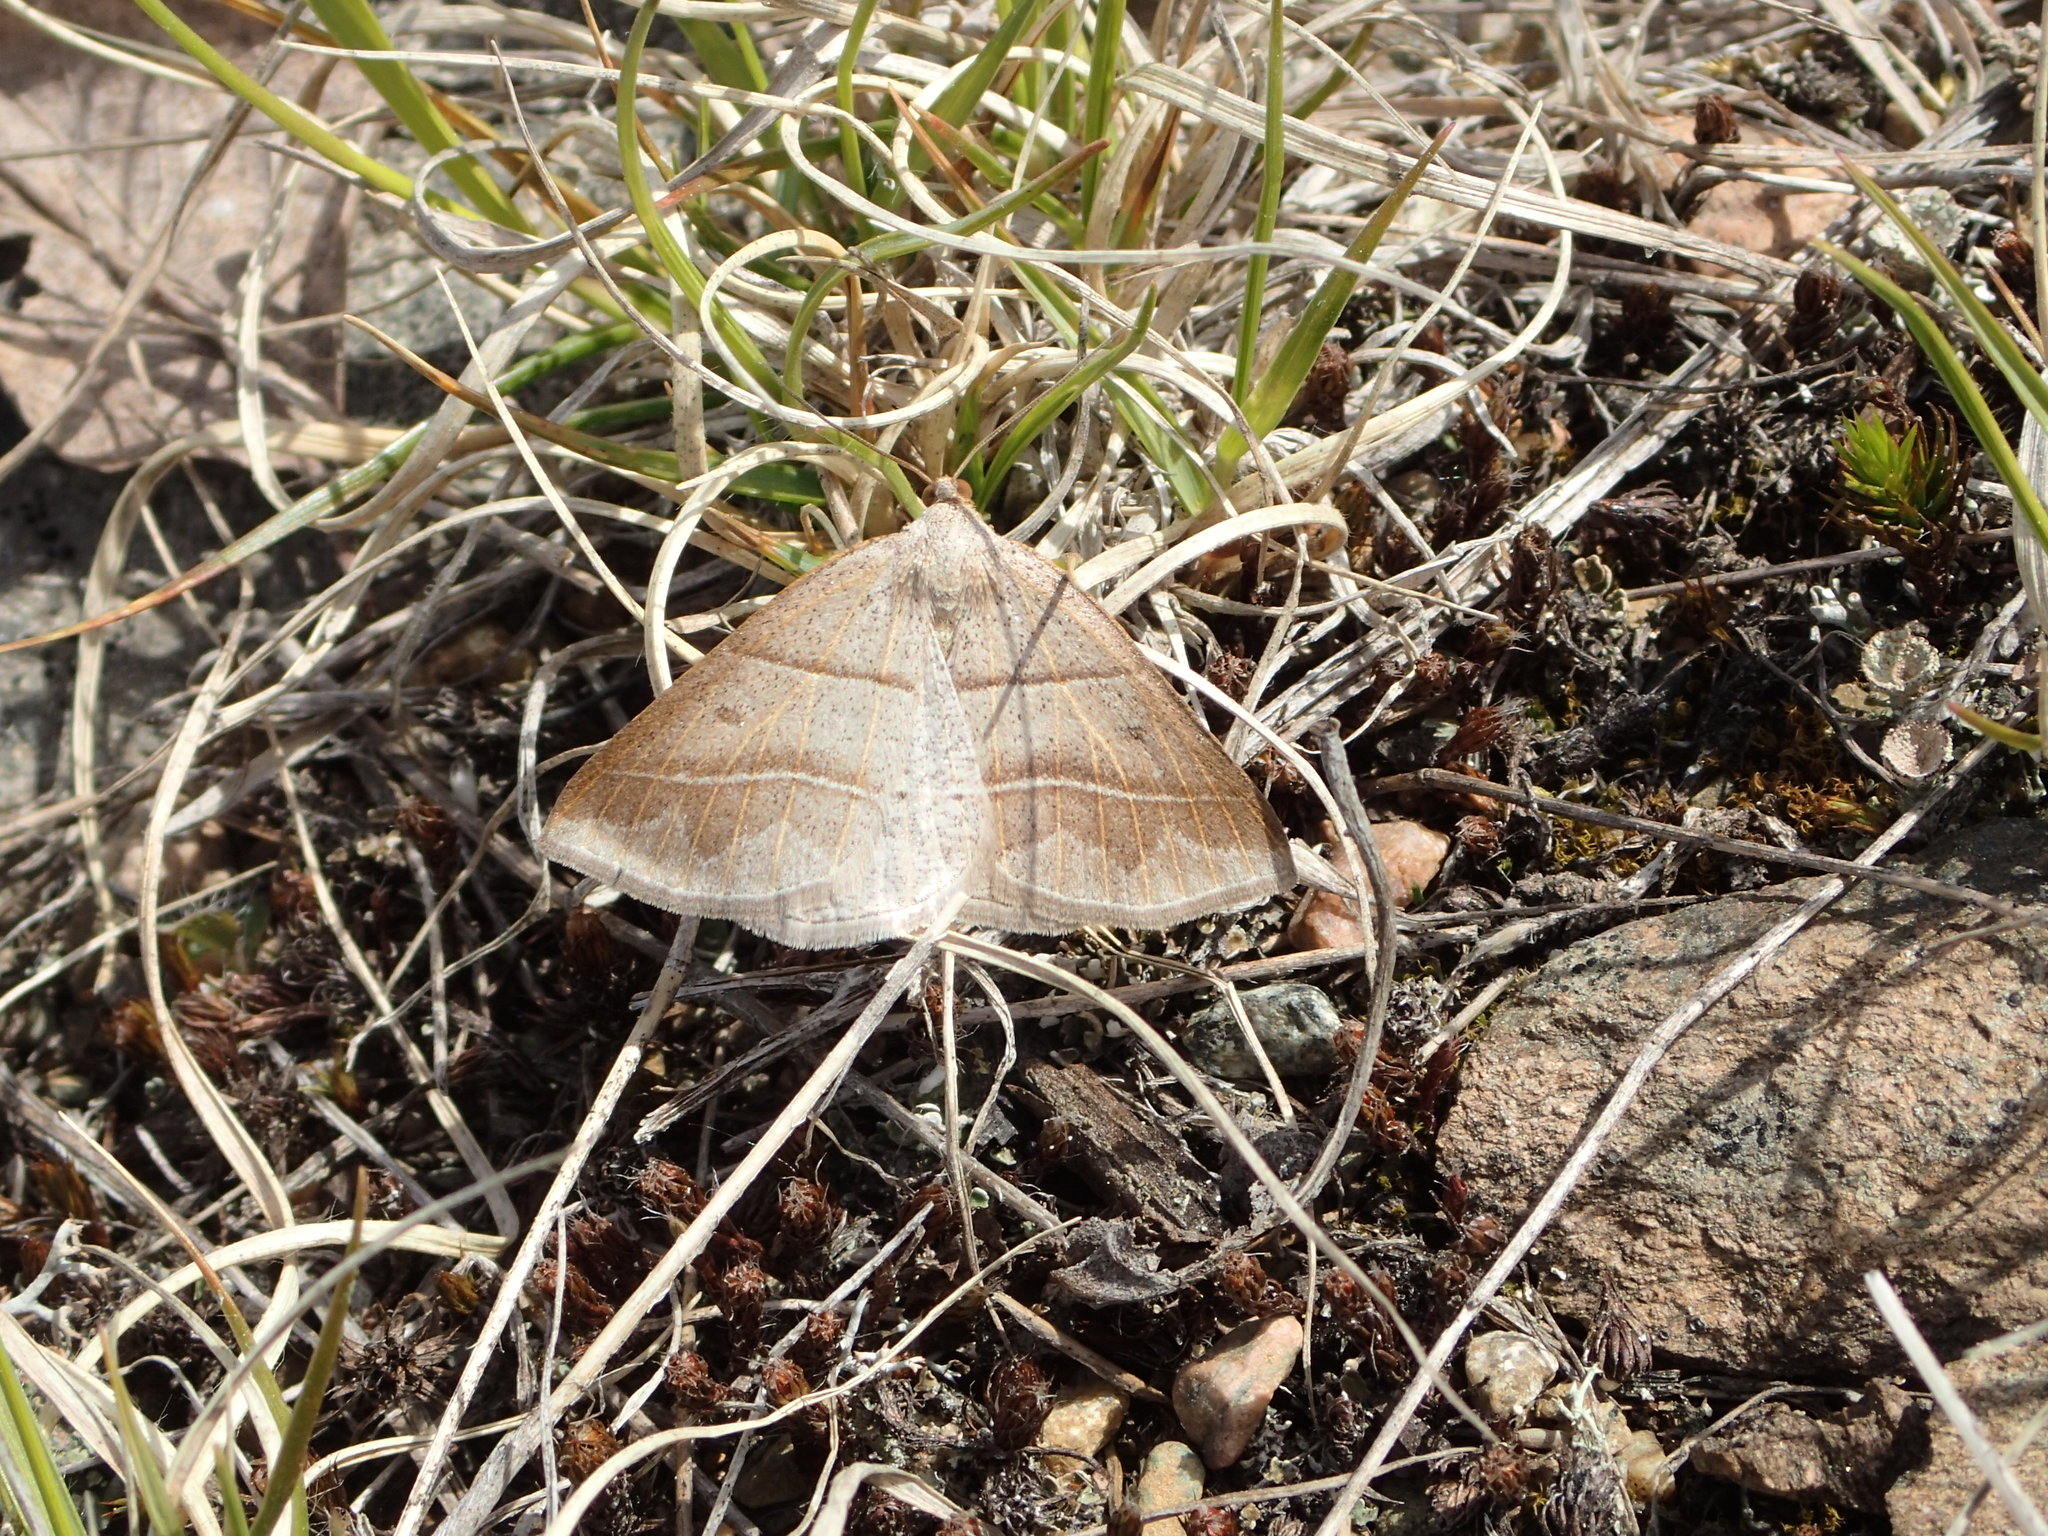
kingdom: Animalia
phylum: Arthropoda
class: Insecta
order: Lepidoptera
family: Pterophoridae
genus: Pterophorus
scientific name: Pterophorus Petrophora subaequaria
